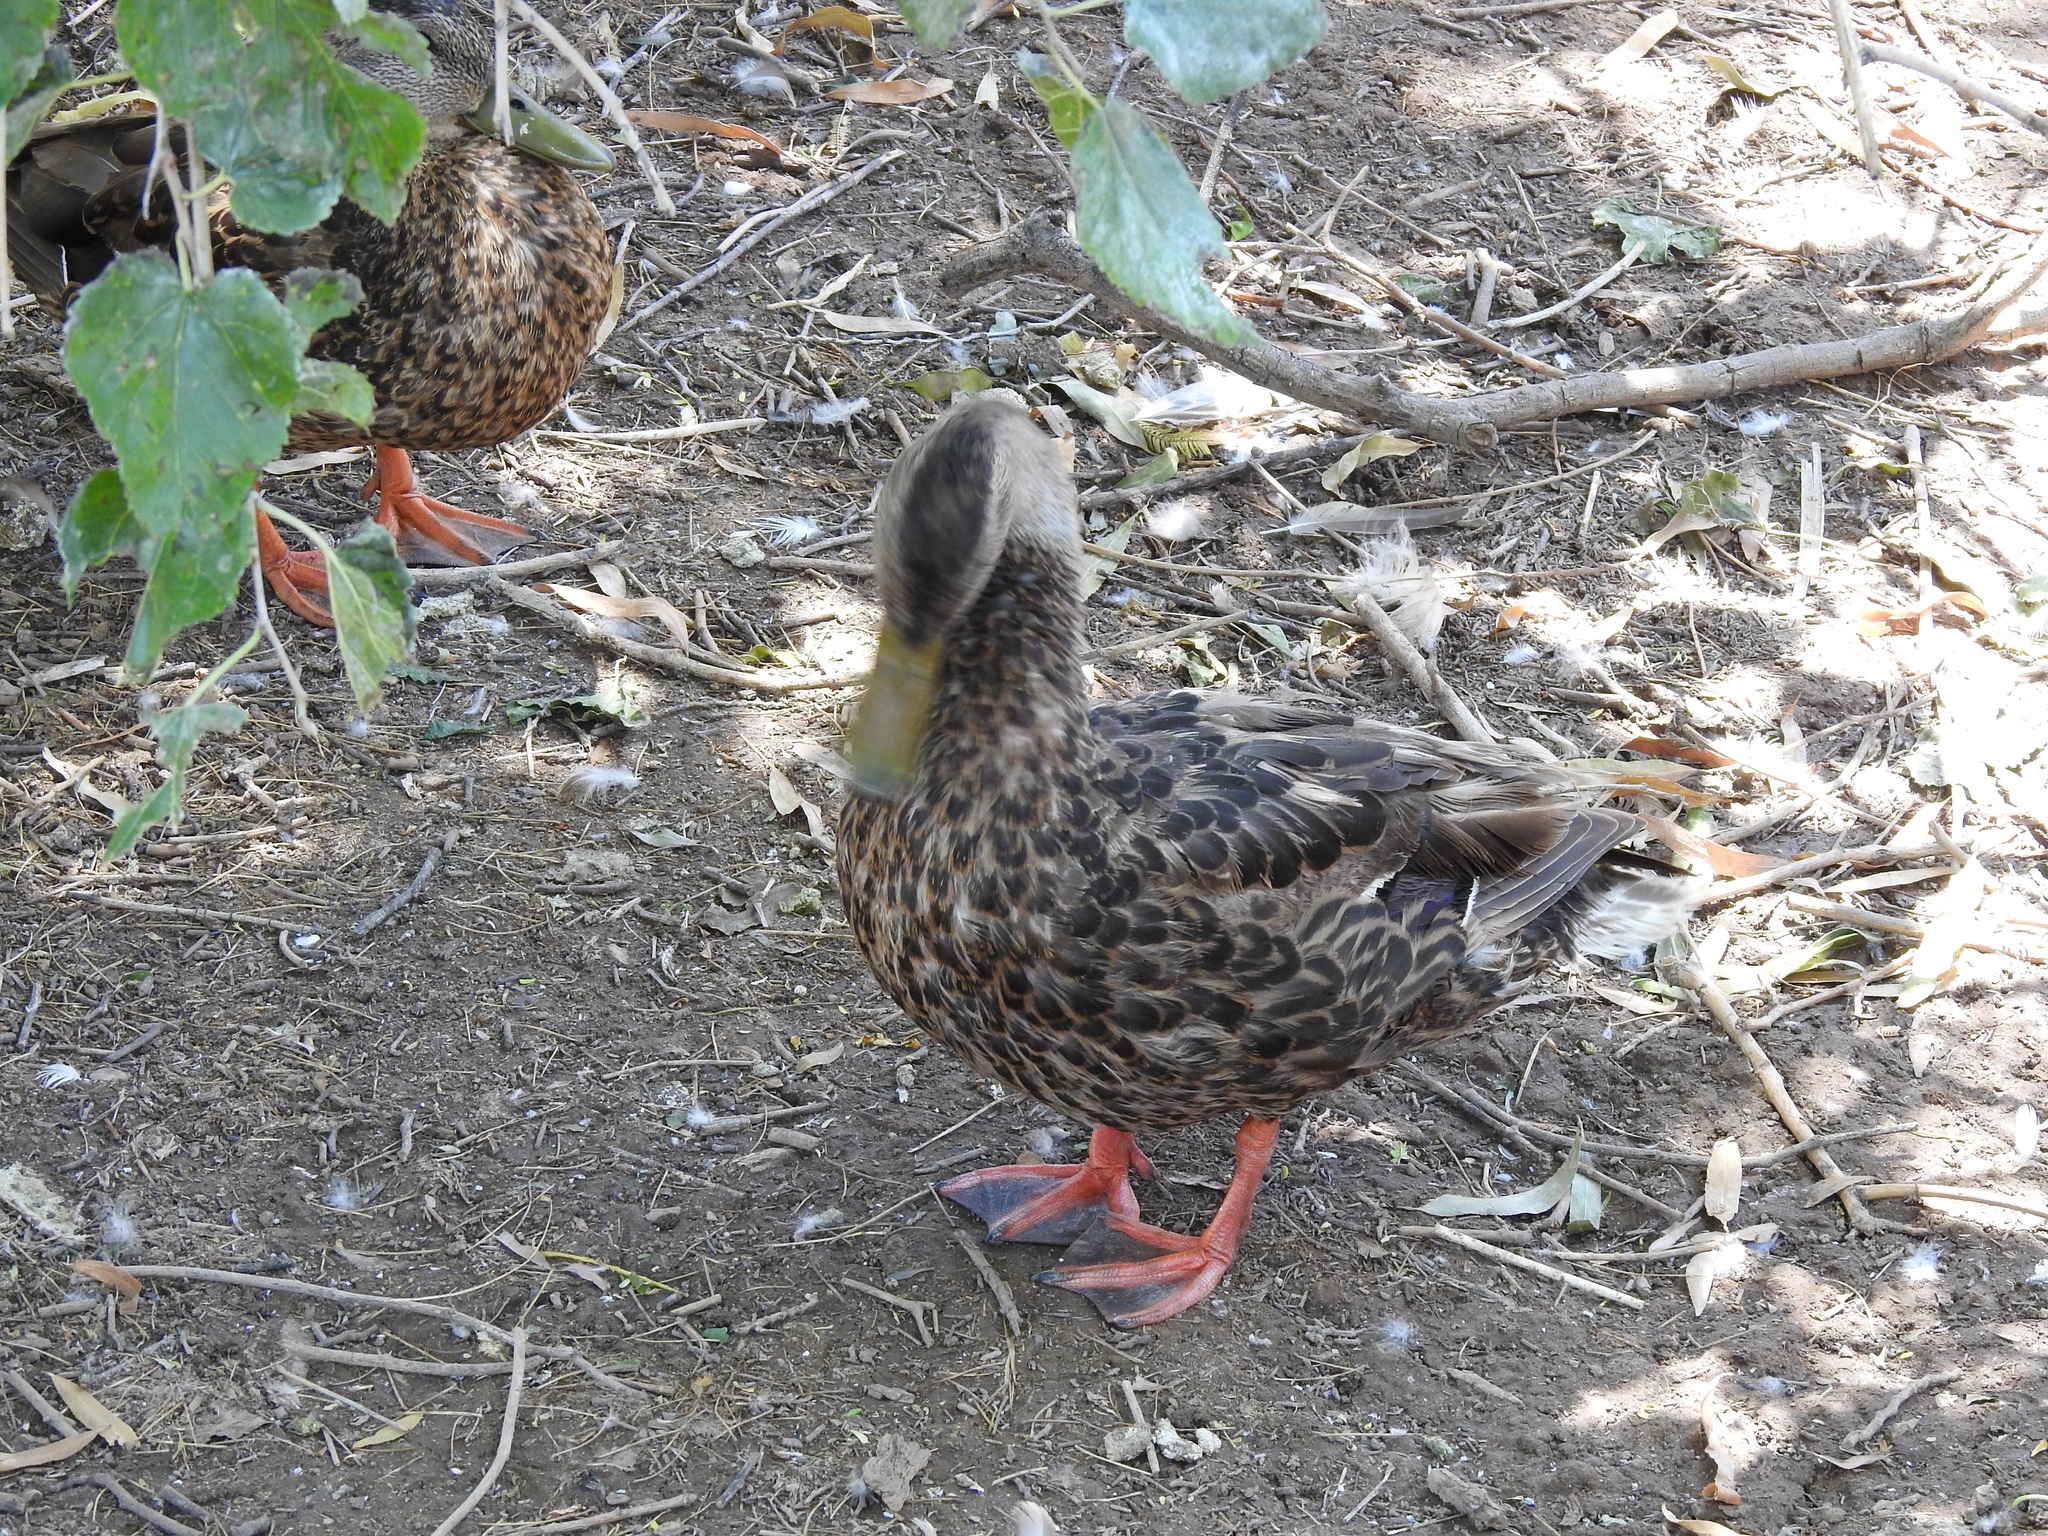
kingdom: Animalia
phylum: Chordata
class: Aves
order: Anseriformes
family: Anatidae
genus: Anas
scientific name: Anas platyrhynchos
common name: Mallard
